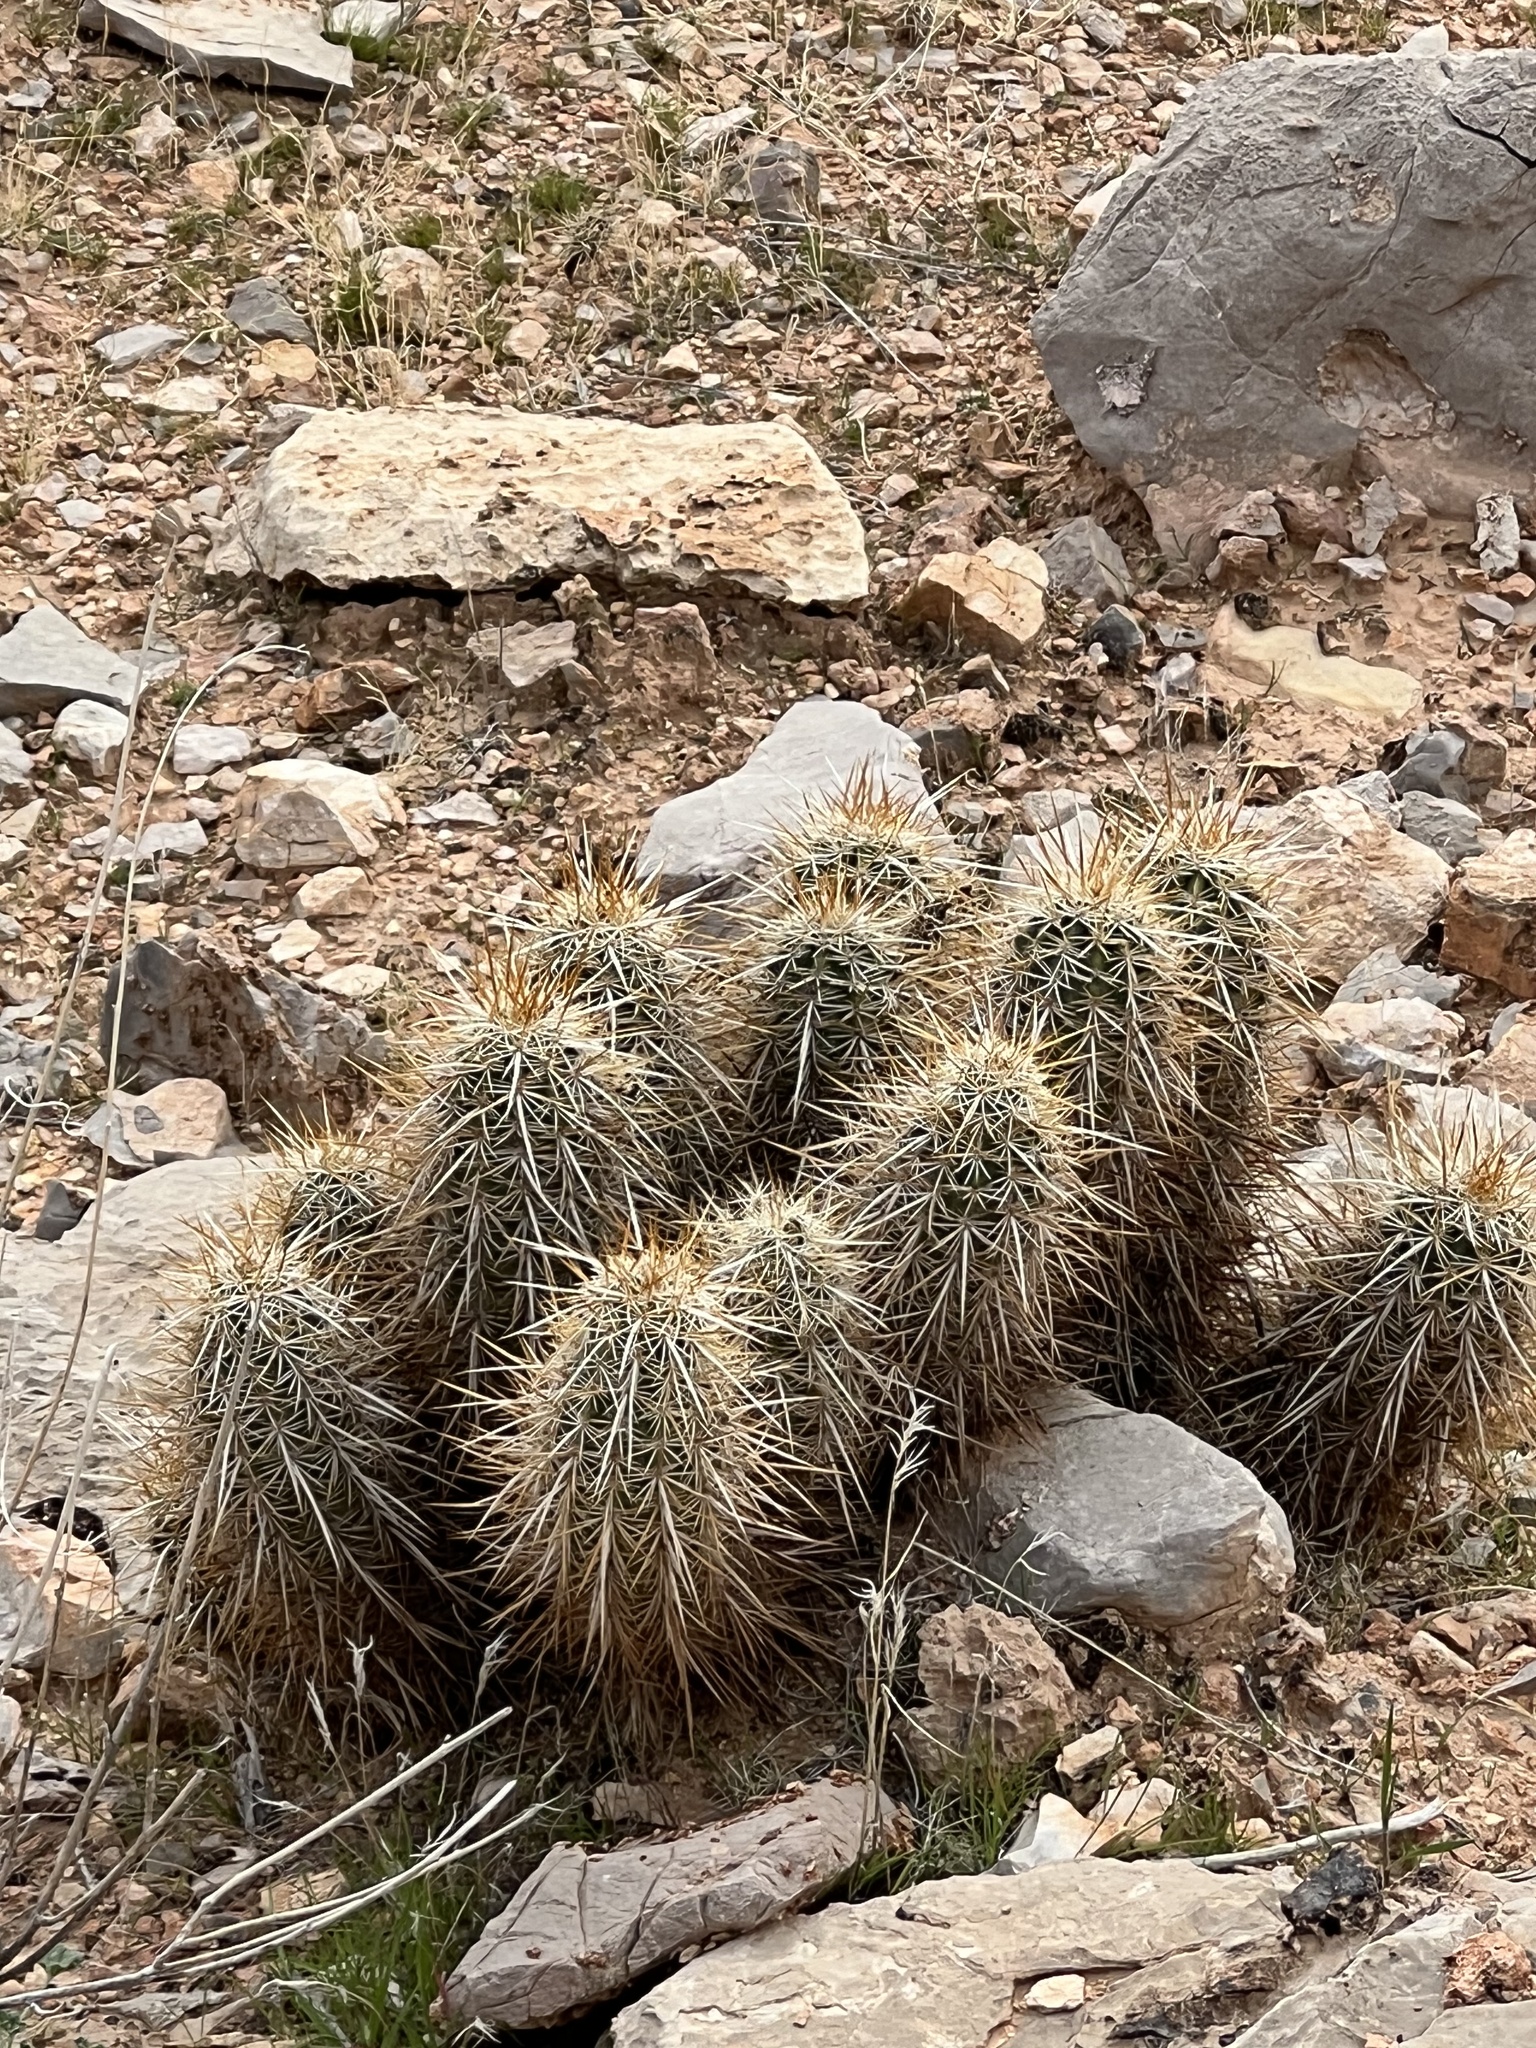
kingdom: Plantae
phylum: Tracheophyta
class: Magnoliopsida
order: Caryophyllales
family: Cactaceae
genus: Echinocereus
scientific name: Echinocereus engelmannii
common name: Engelmann's hedgehog cactus
